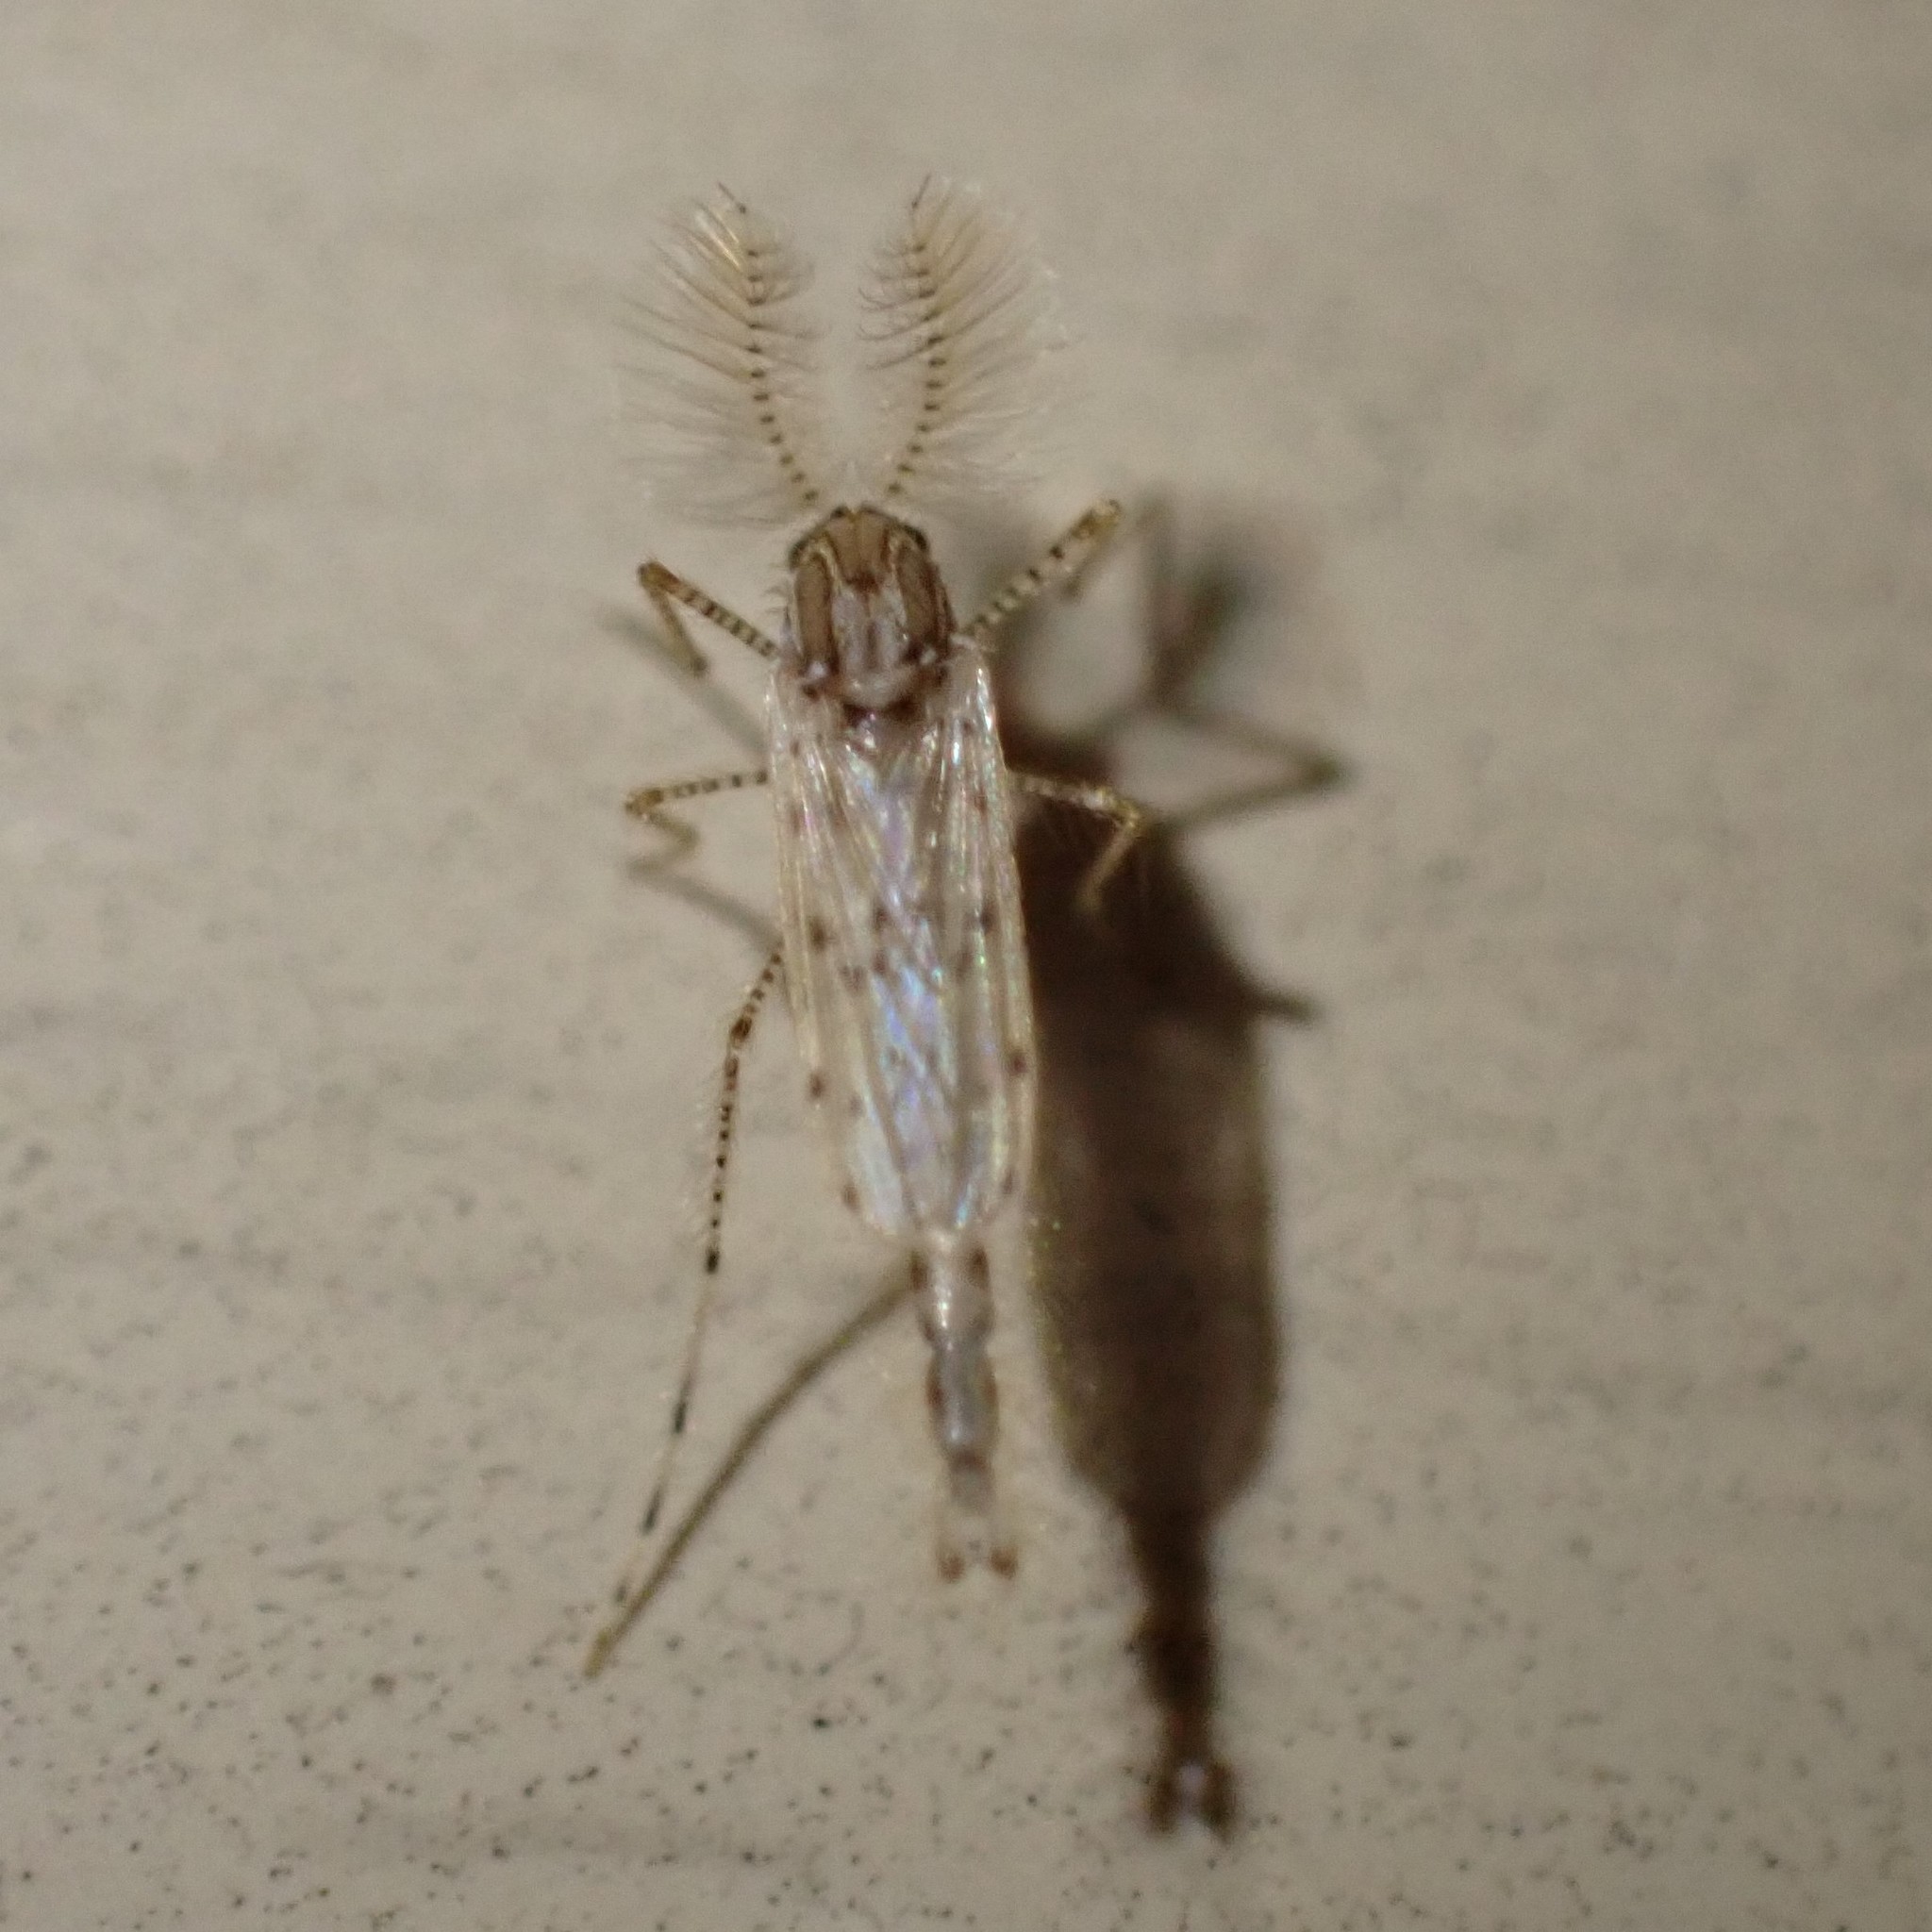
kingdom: Animalia
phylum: Arthropoda
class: Insecta
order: Diptera
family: Chaoboridae
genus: Chaoborus
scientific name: Chaoborus punctipennis
